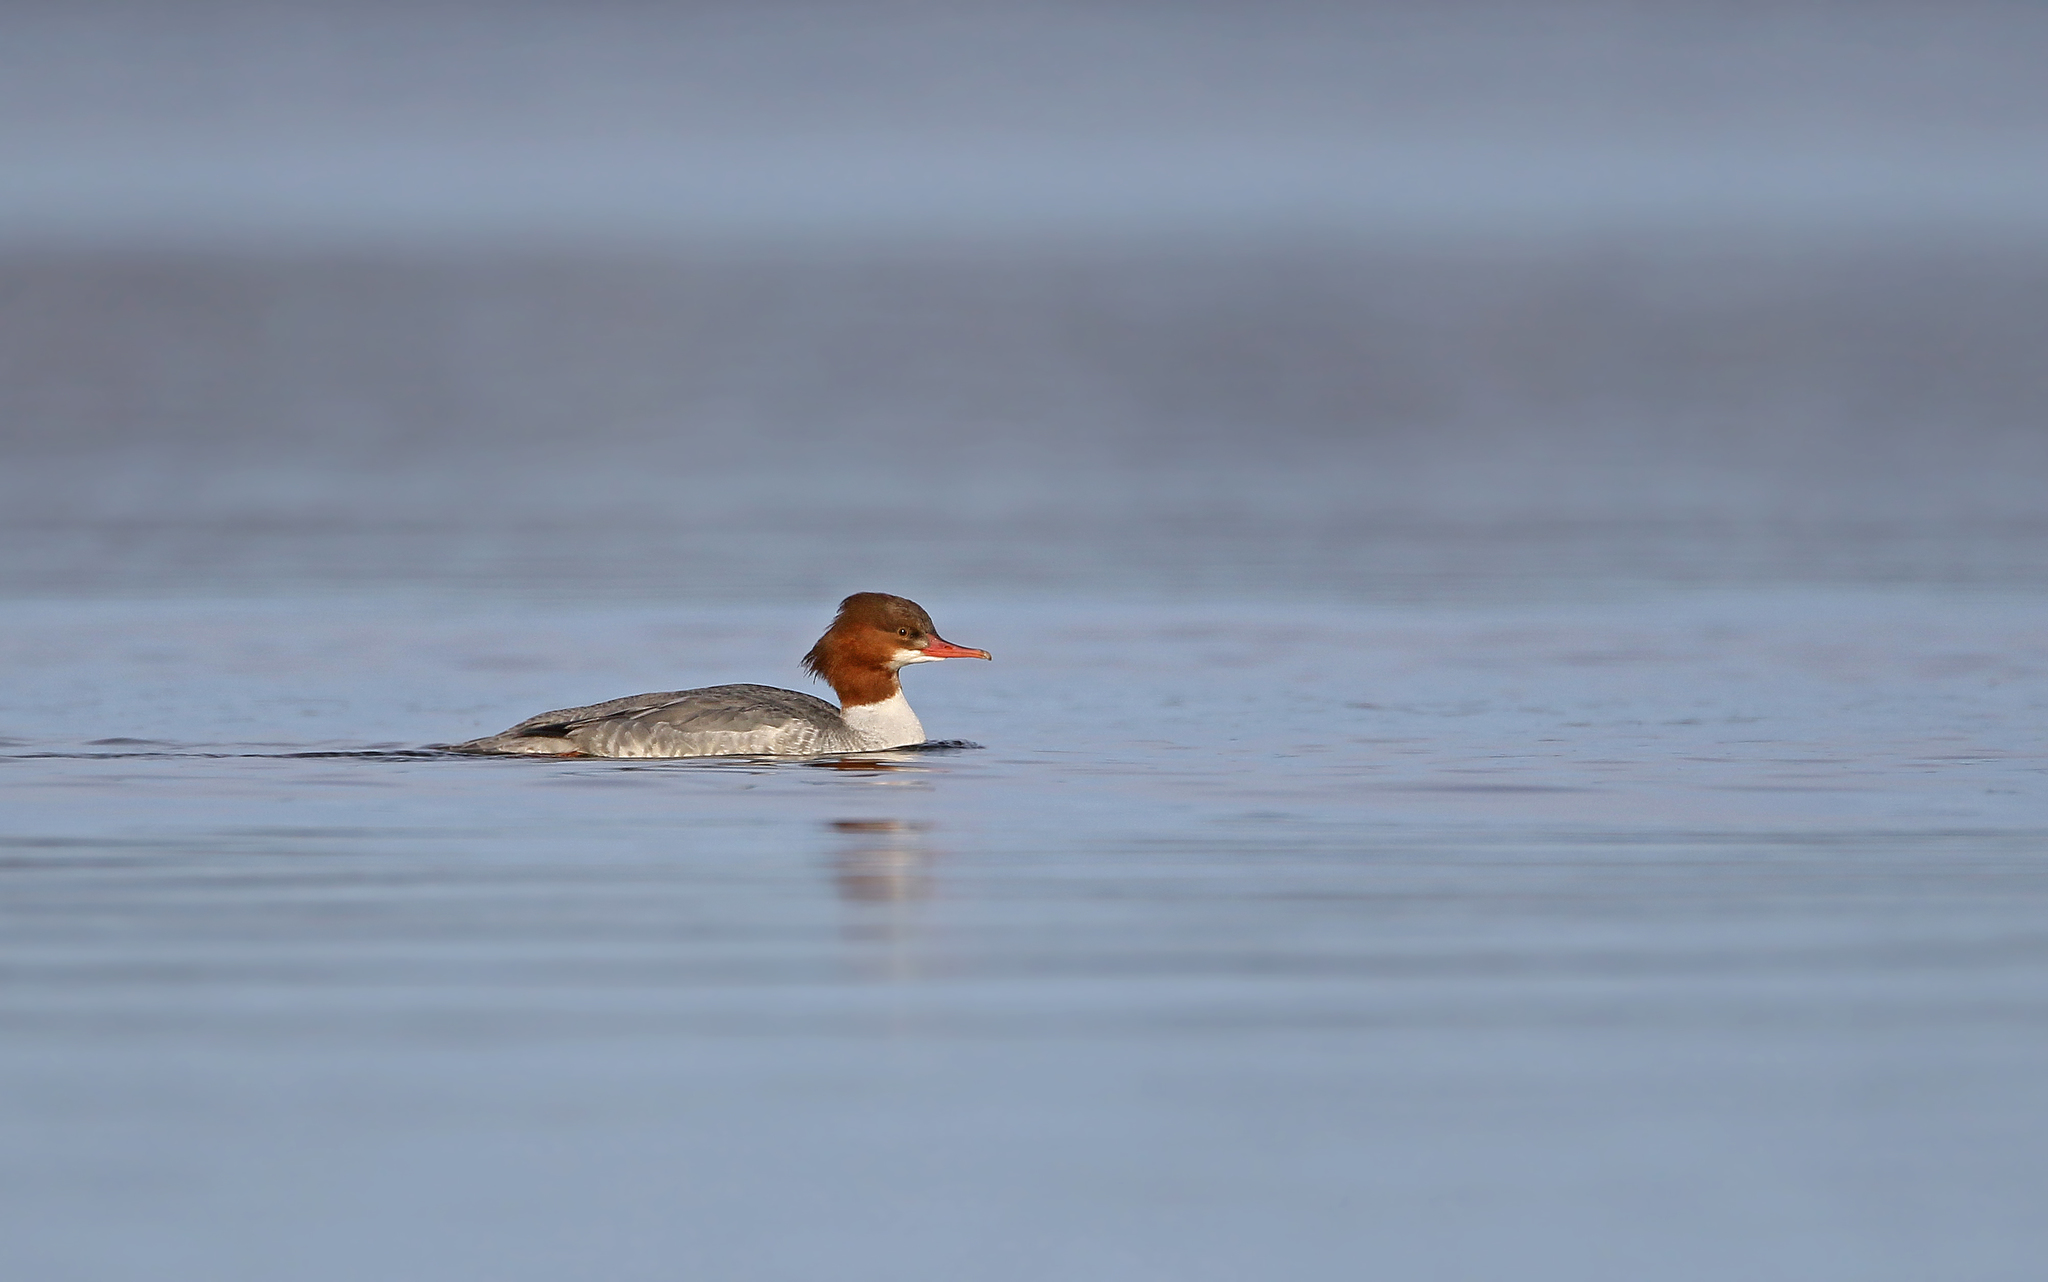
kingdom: Animalia
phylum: Chordata
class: Aves
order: Anseriformes
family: Anatidae
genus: Mergus
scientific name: Mergus merganser
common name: Common merganser
